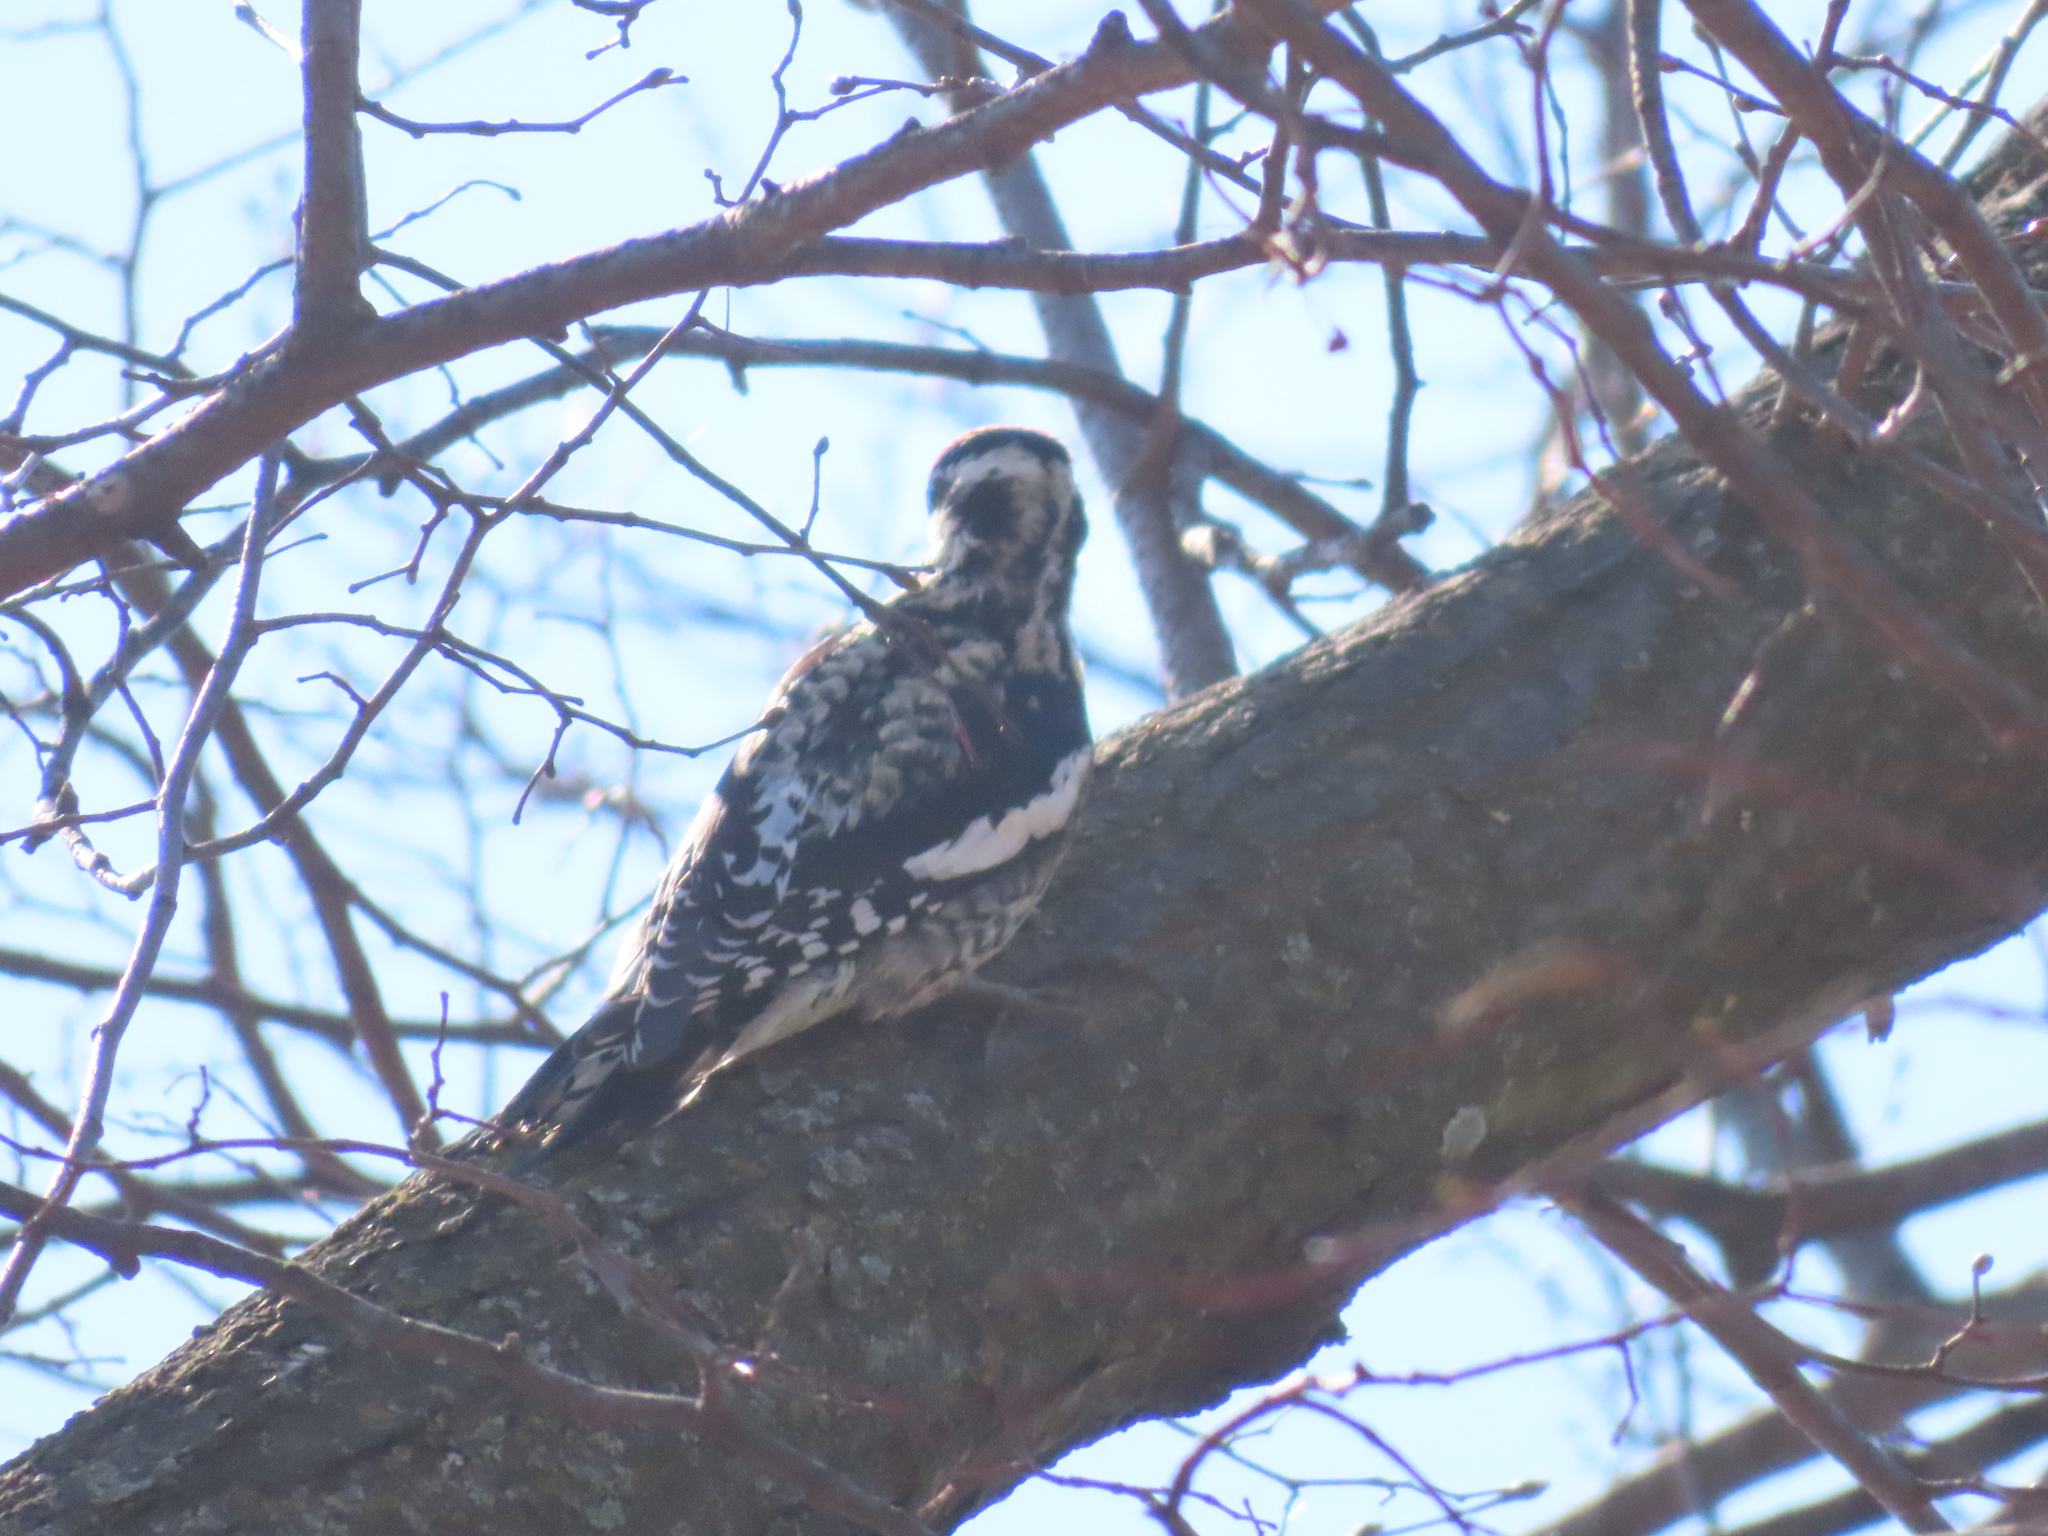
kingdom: Animalia
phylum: Chordata
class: Aves
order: Piciformes
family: Picidae
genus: Sphyrapicus
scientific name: Sphyrapicus varius
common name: Yellow-bellied sapsucker
